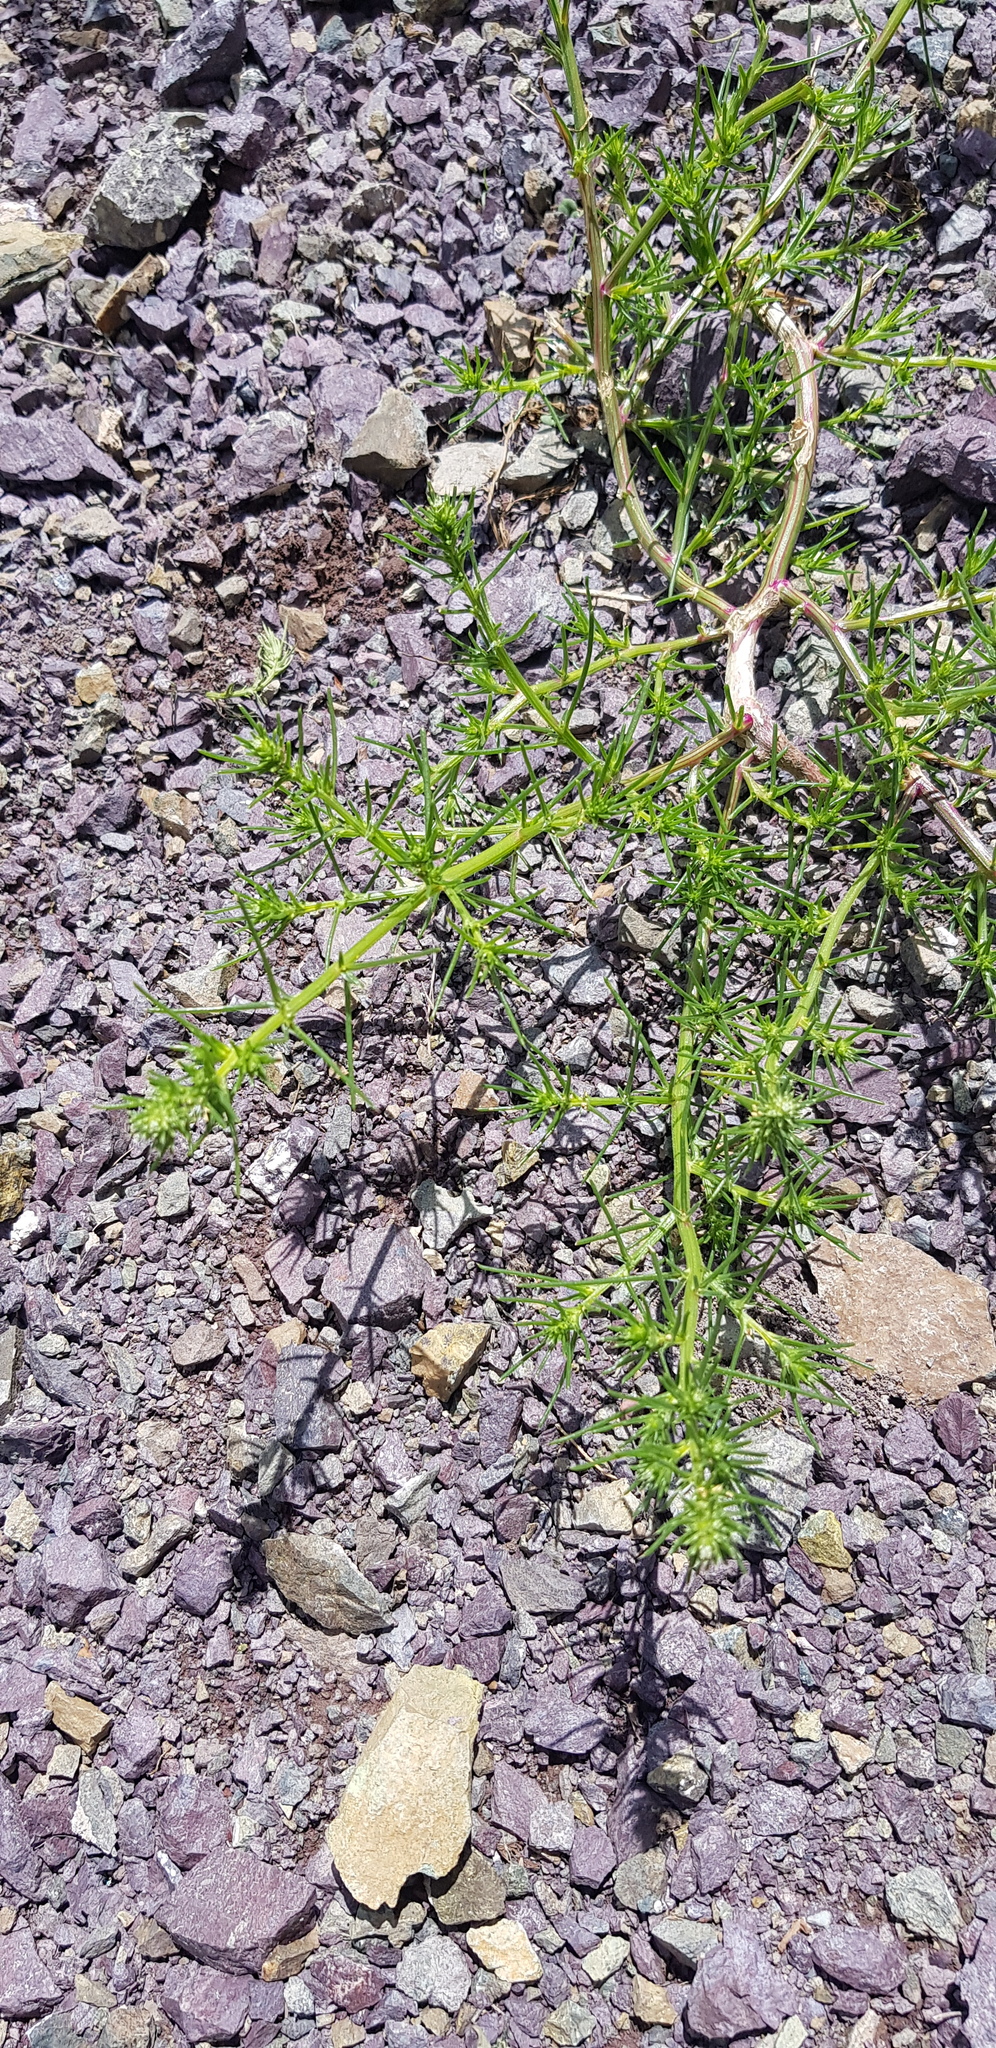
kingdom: Plantae
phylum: Tracheophyta
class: Magnoliopsida
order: Caryophyllales
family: Amaranthaceae
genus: Salsola
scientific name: Salsola collina
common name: Tumbleweed
